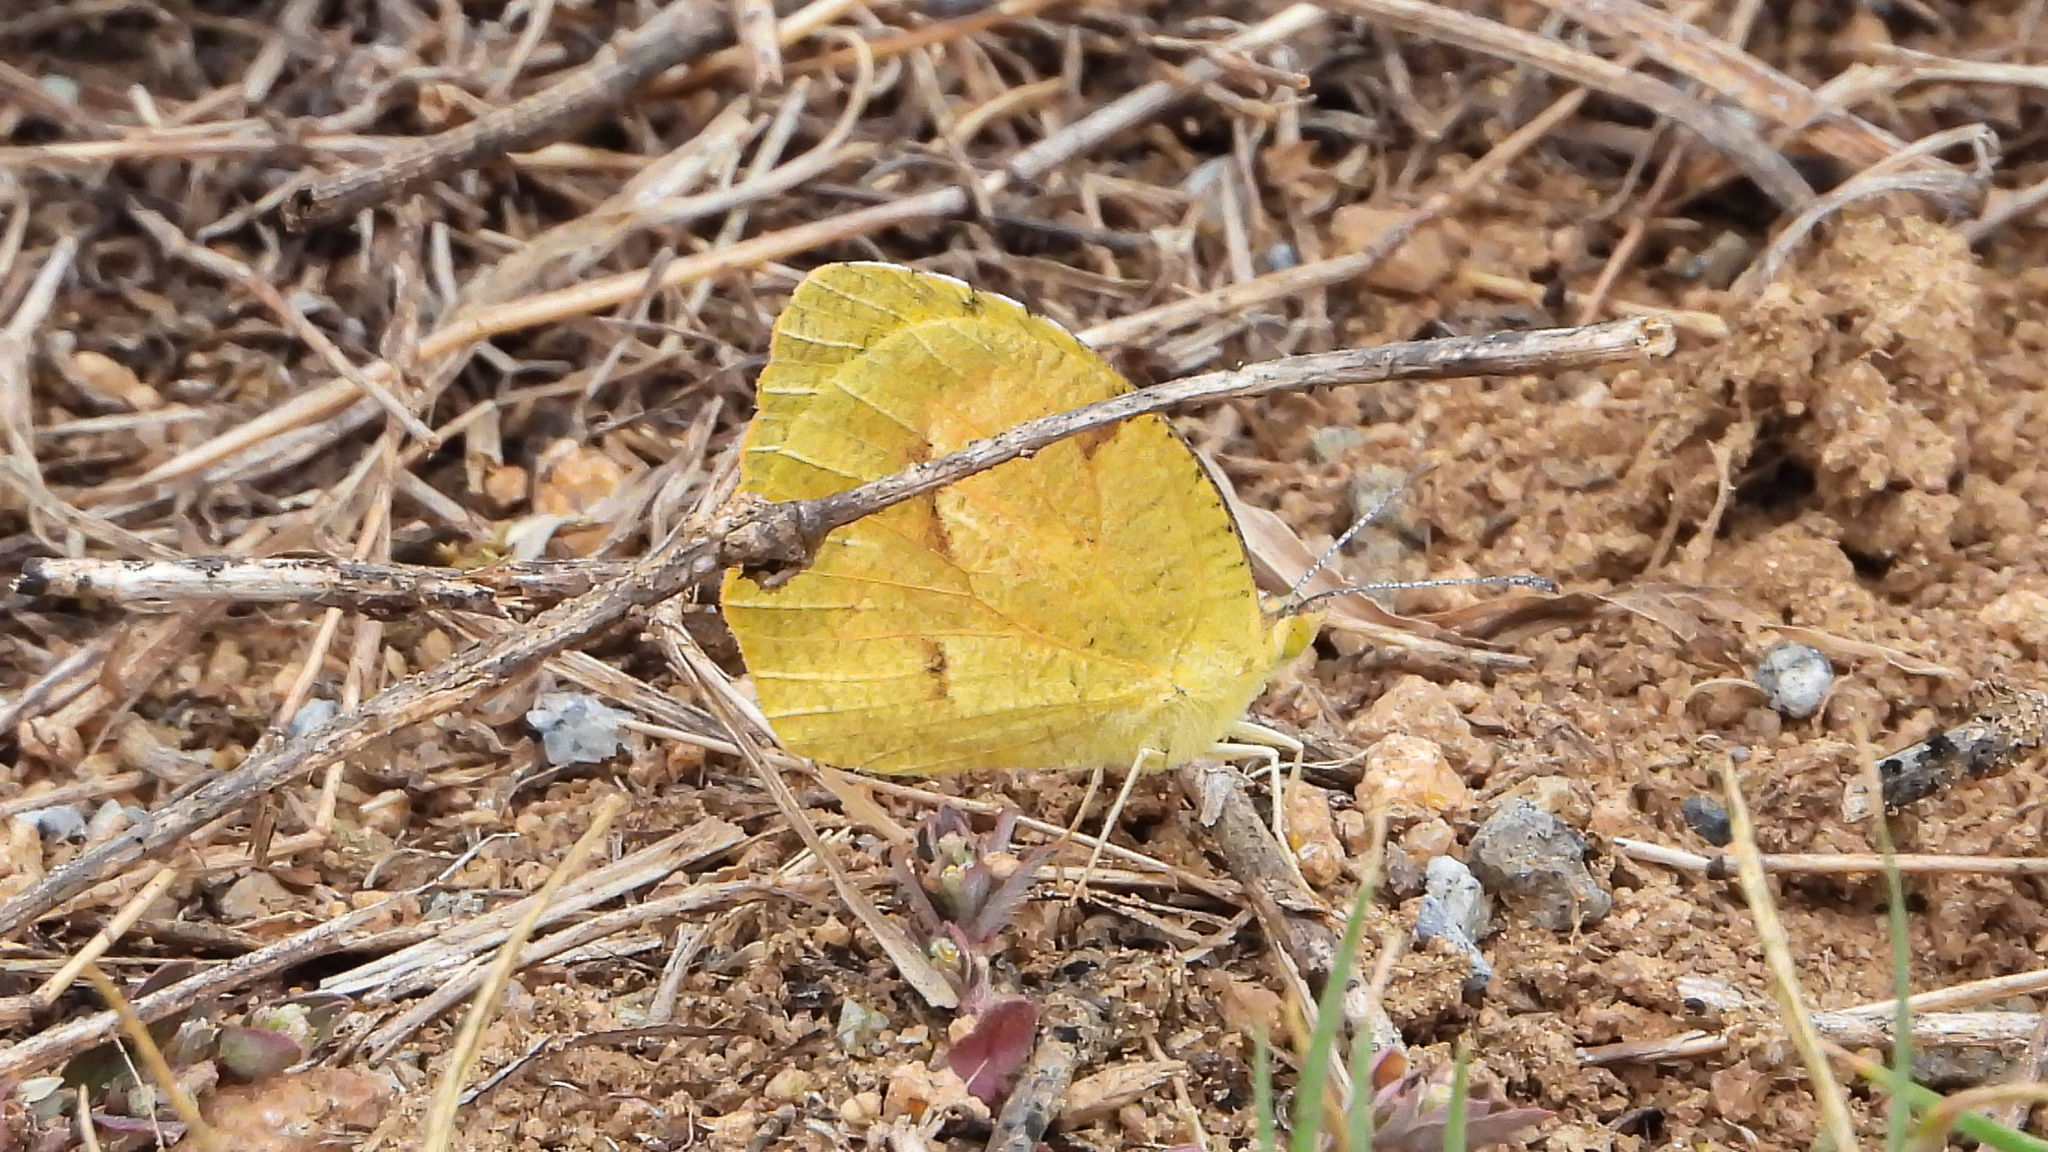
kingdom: Animalia
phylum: Arthropoda
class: Insecta
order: Lepidoptera
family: Pieridae
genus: Abaeis
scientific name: Abaeis nicippe
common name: Sleepy orange
